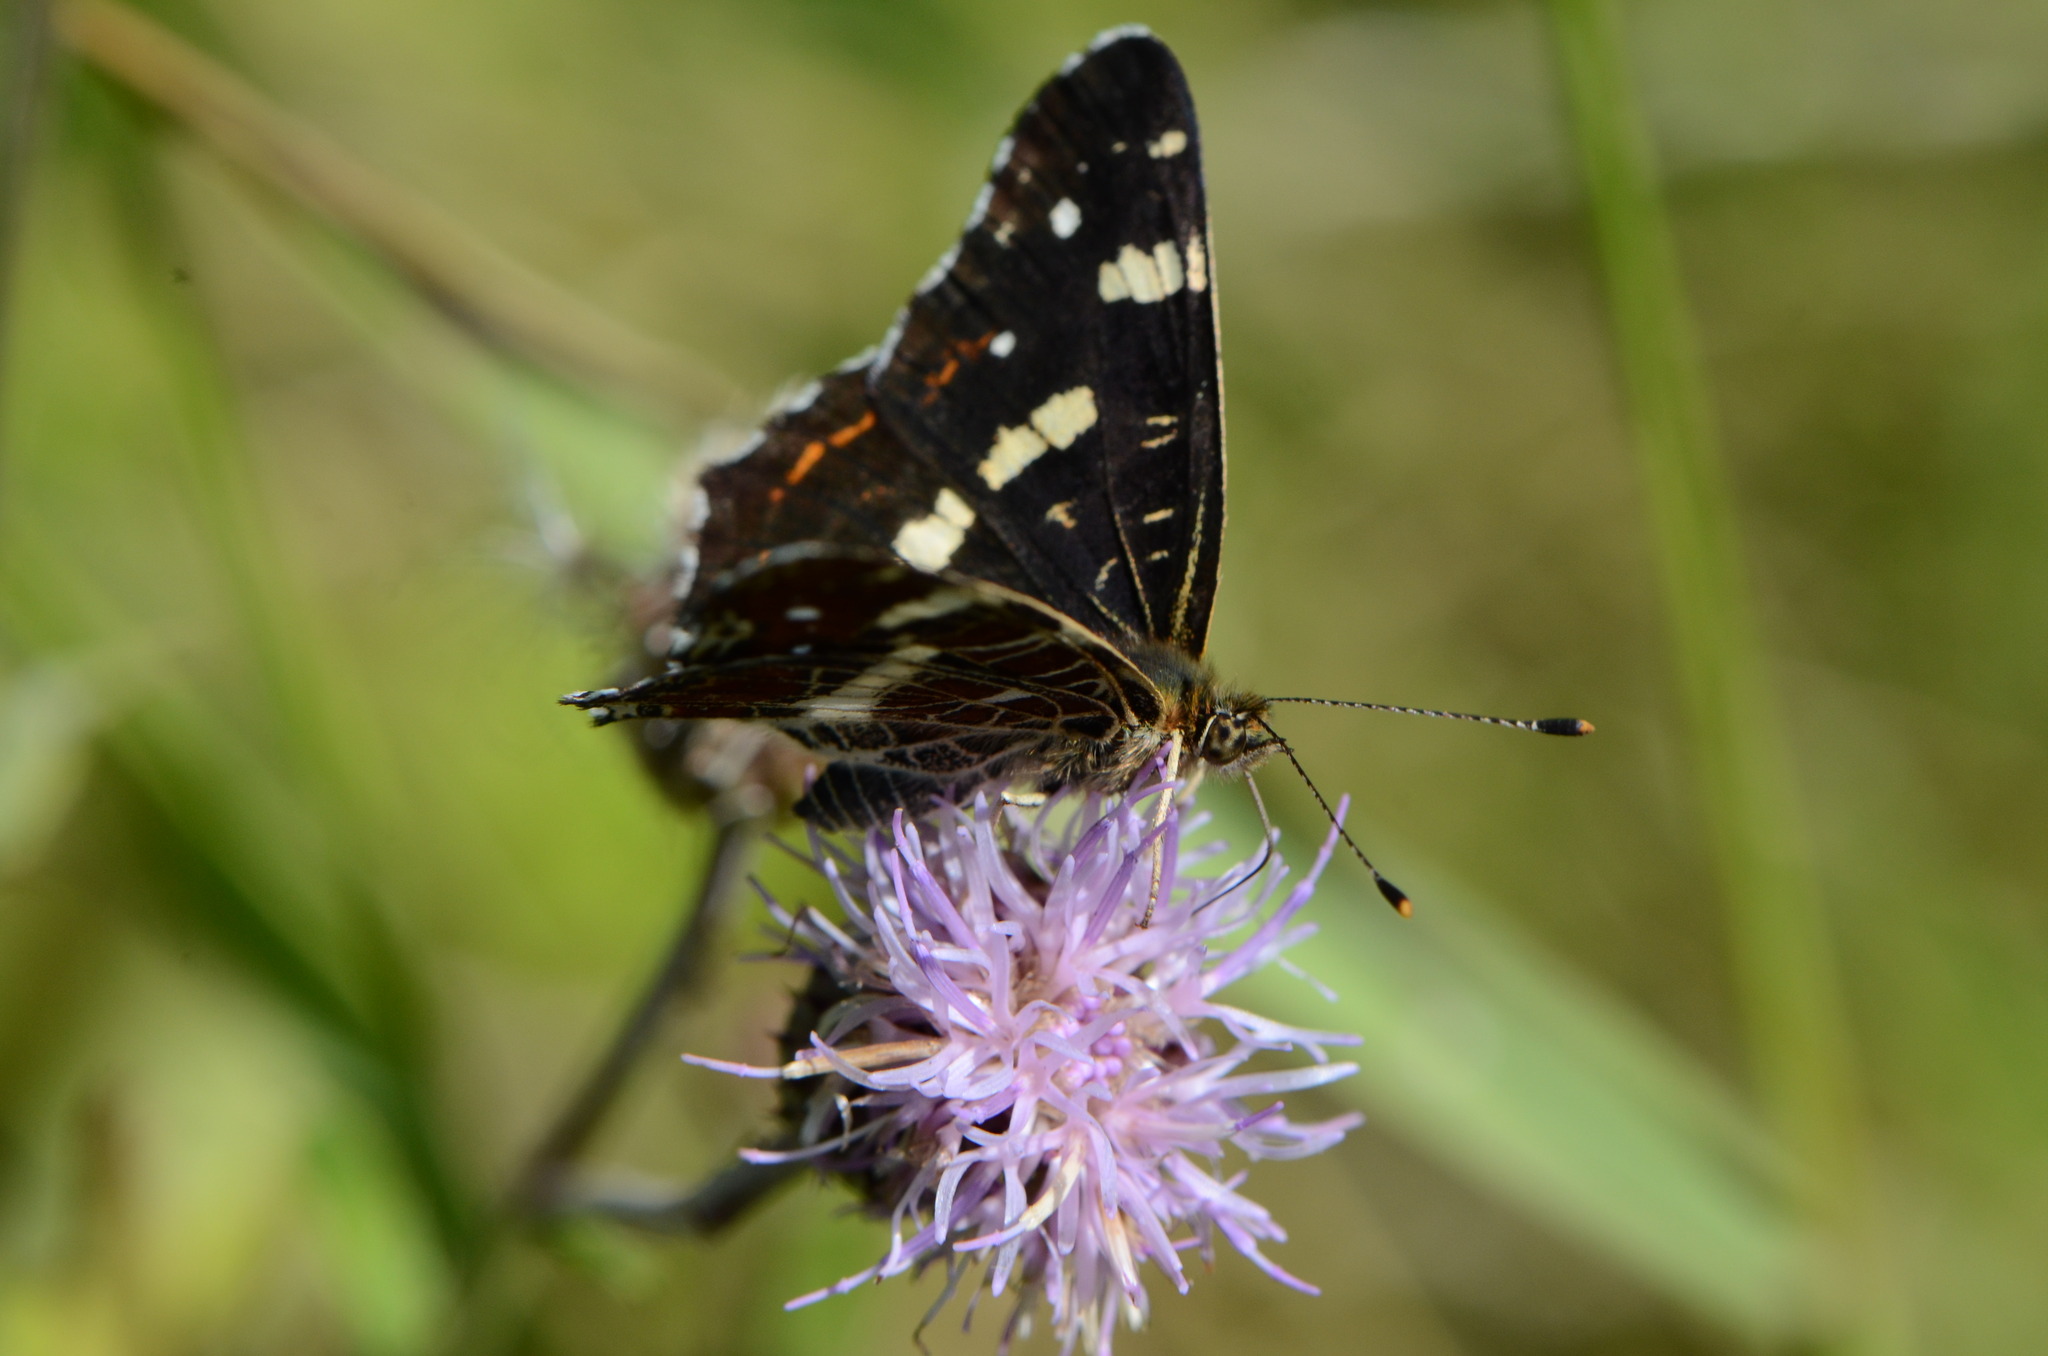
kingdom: Animalia
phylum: Arthropoda
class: Insecta
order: Lepidoptera
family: Nymphalidae
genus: Araschnia
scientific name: Araschnia levana
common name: Map butterfly
